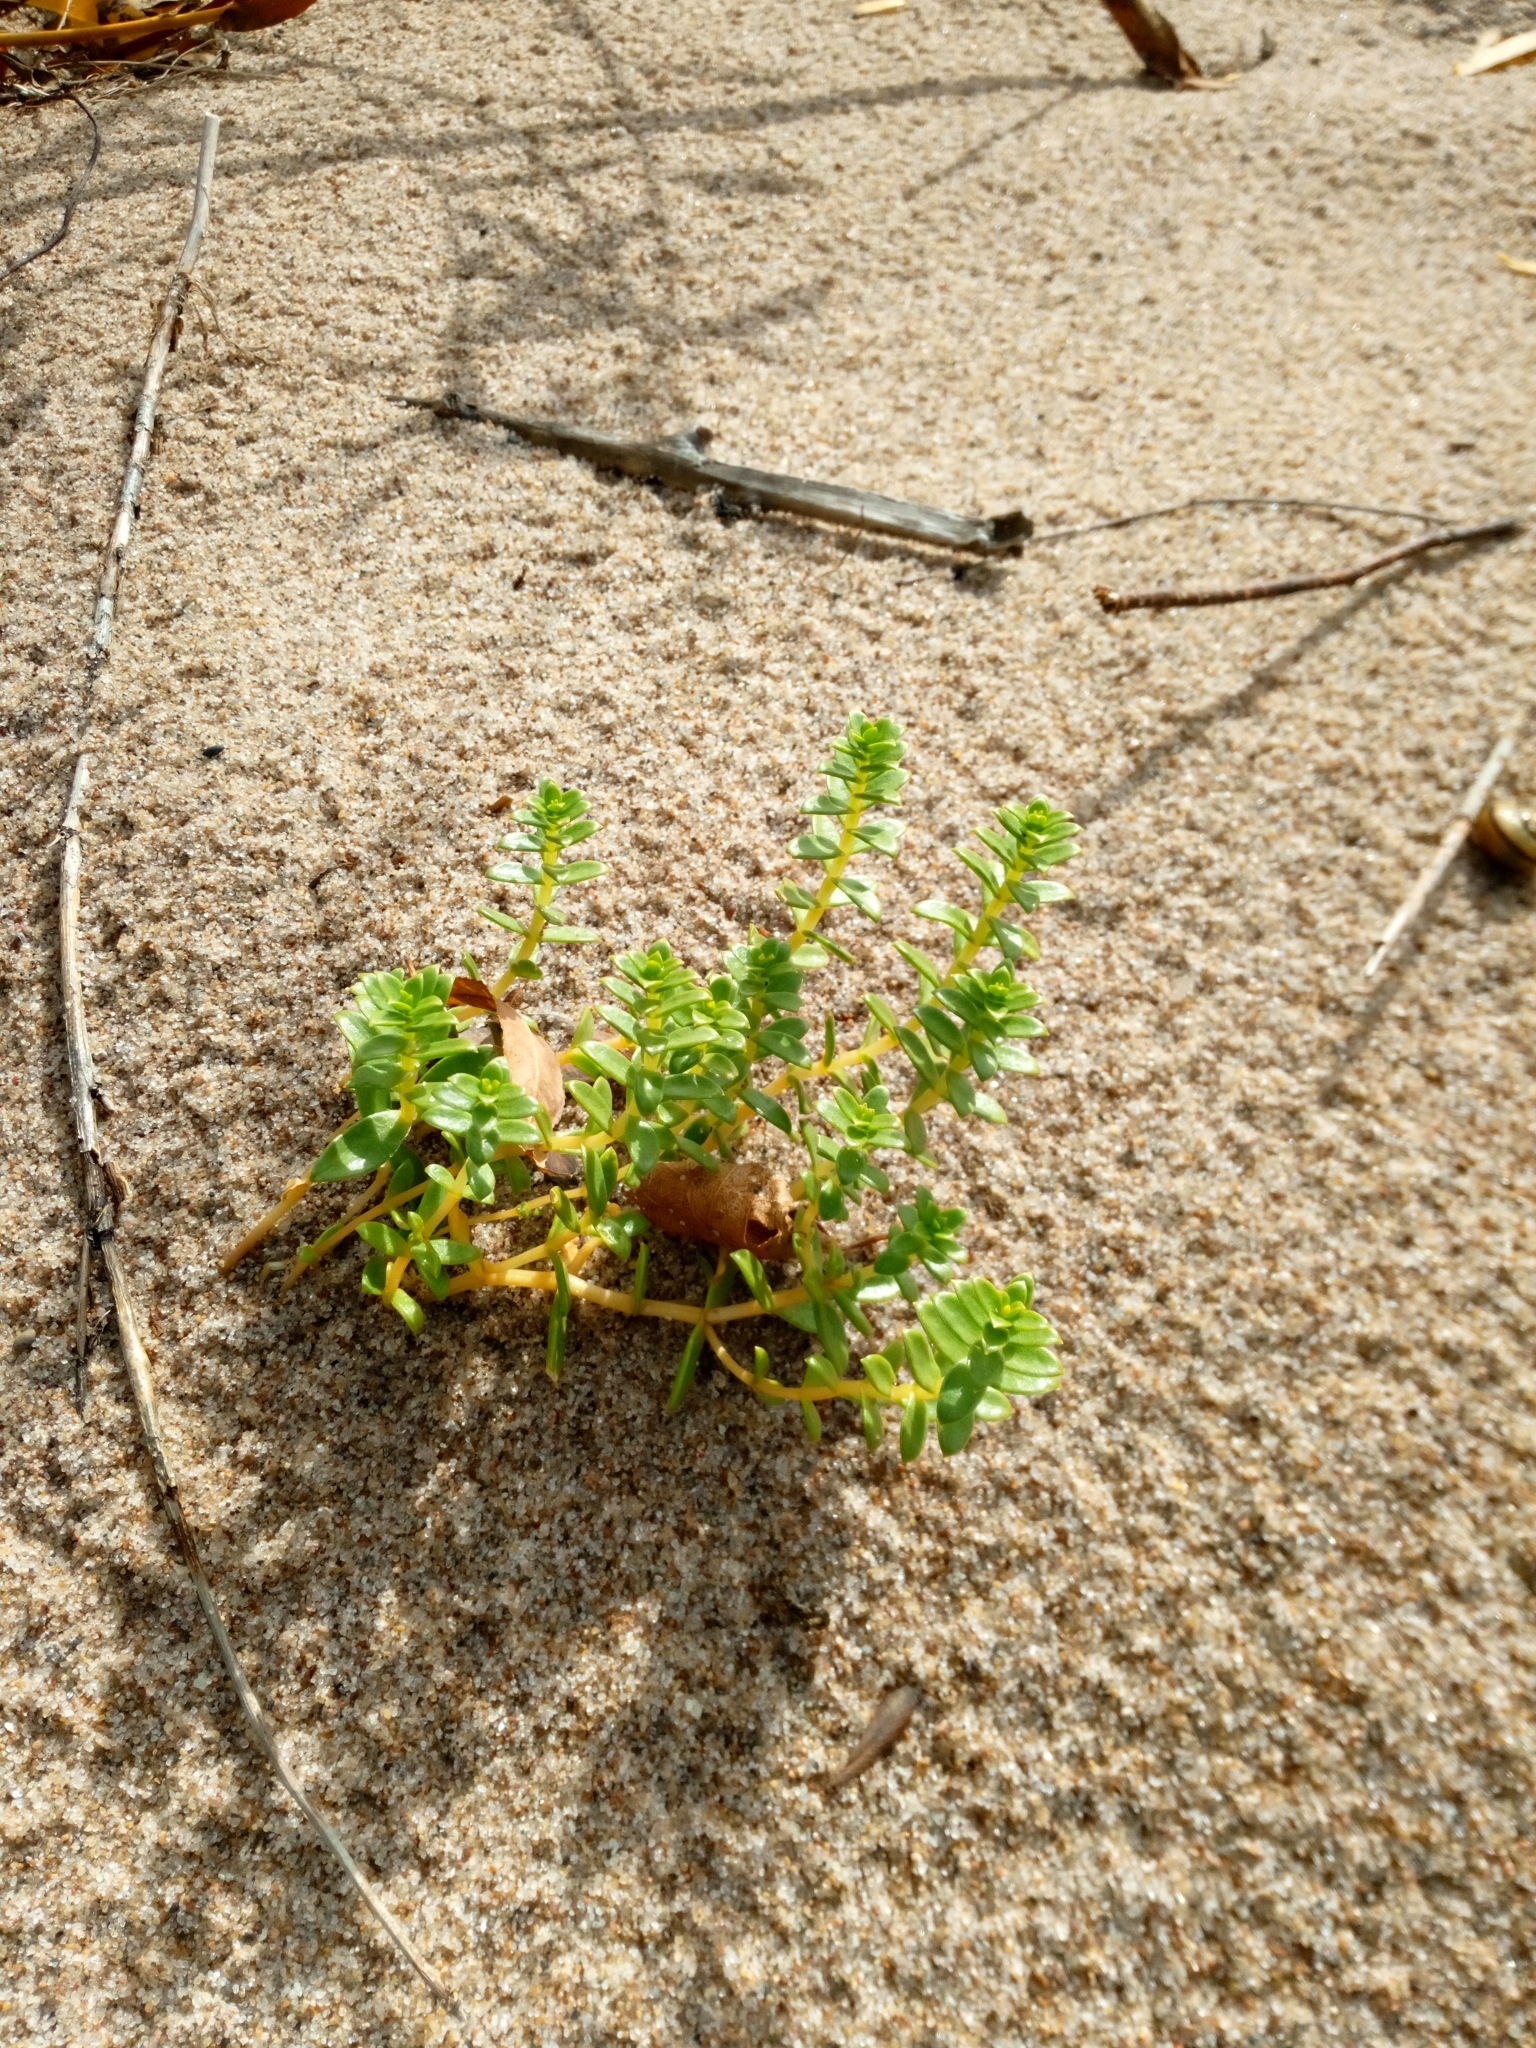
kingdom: Plantae
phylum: Tracheophyta
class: Magnoliopsida
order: Caryophyllales
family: Caryophyllaceae
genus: Honckenya
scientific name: Honckenya peploides
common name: Sea sandwort
